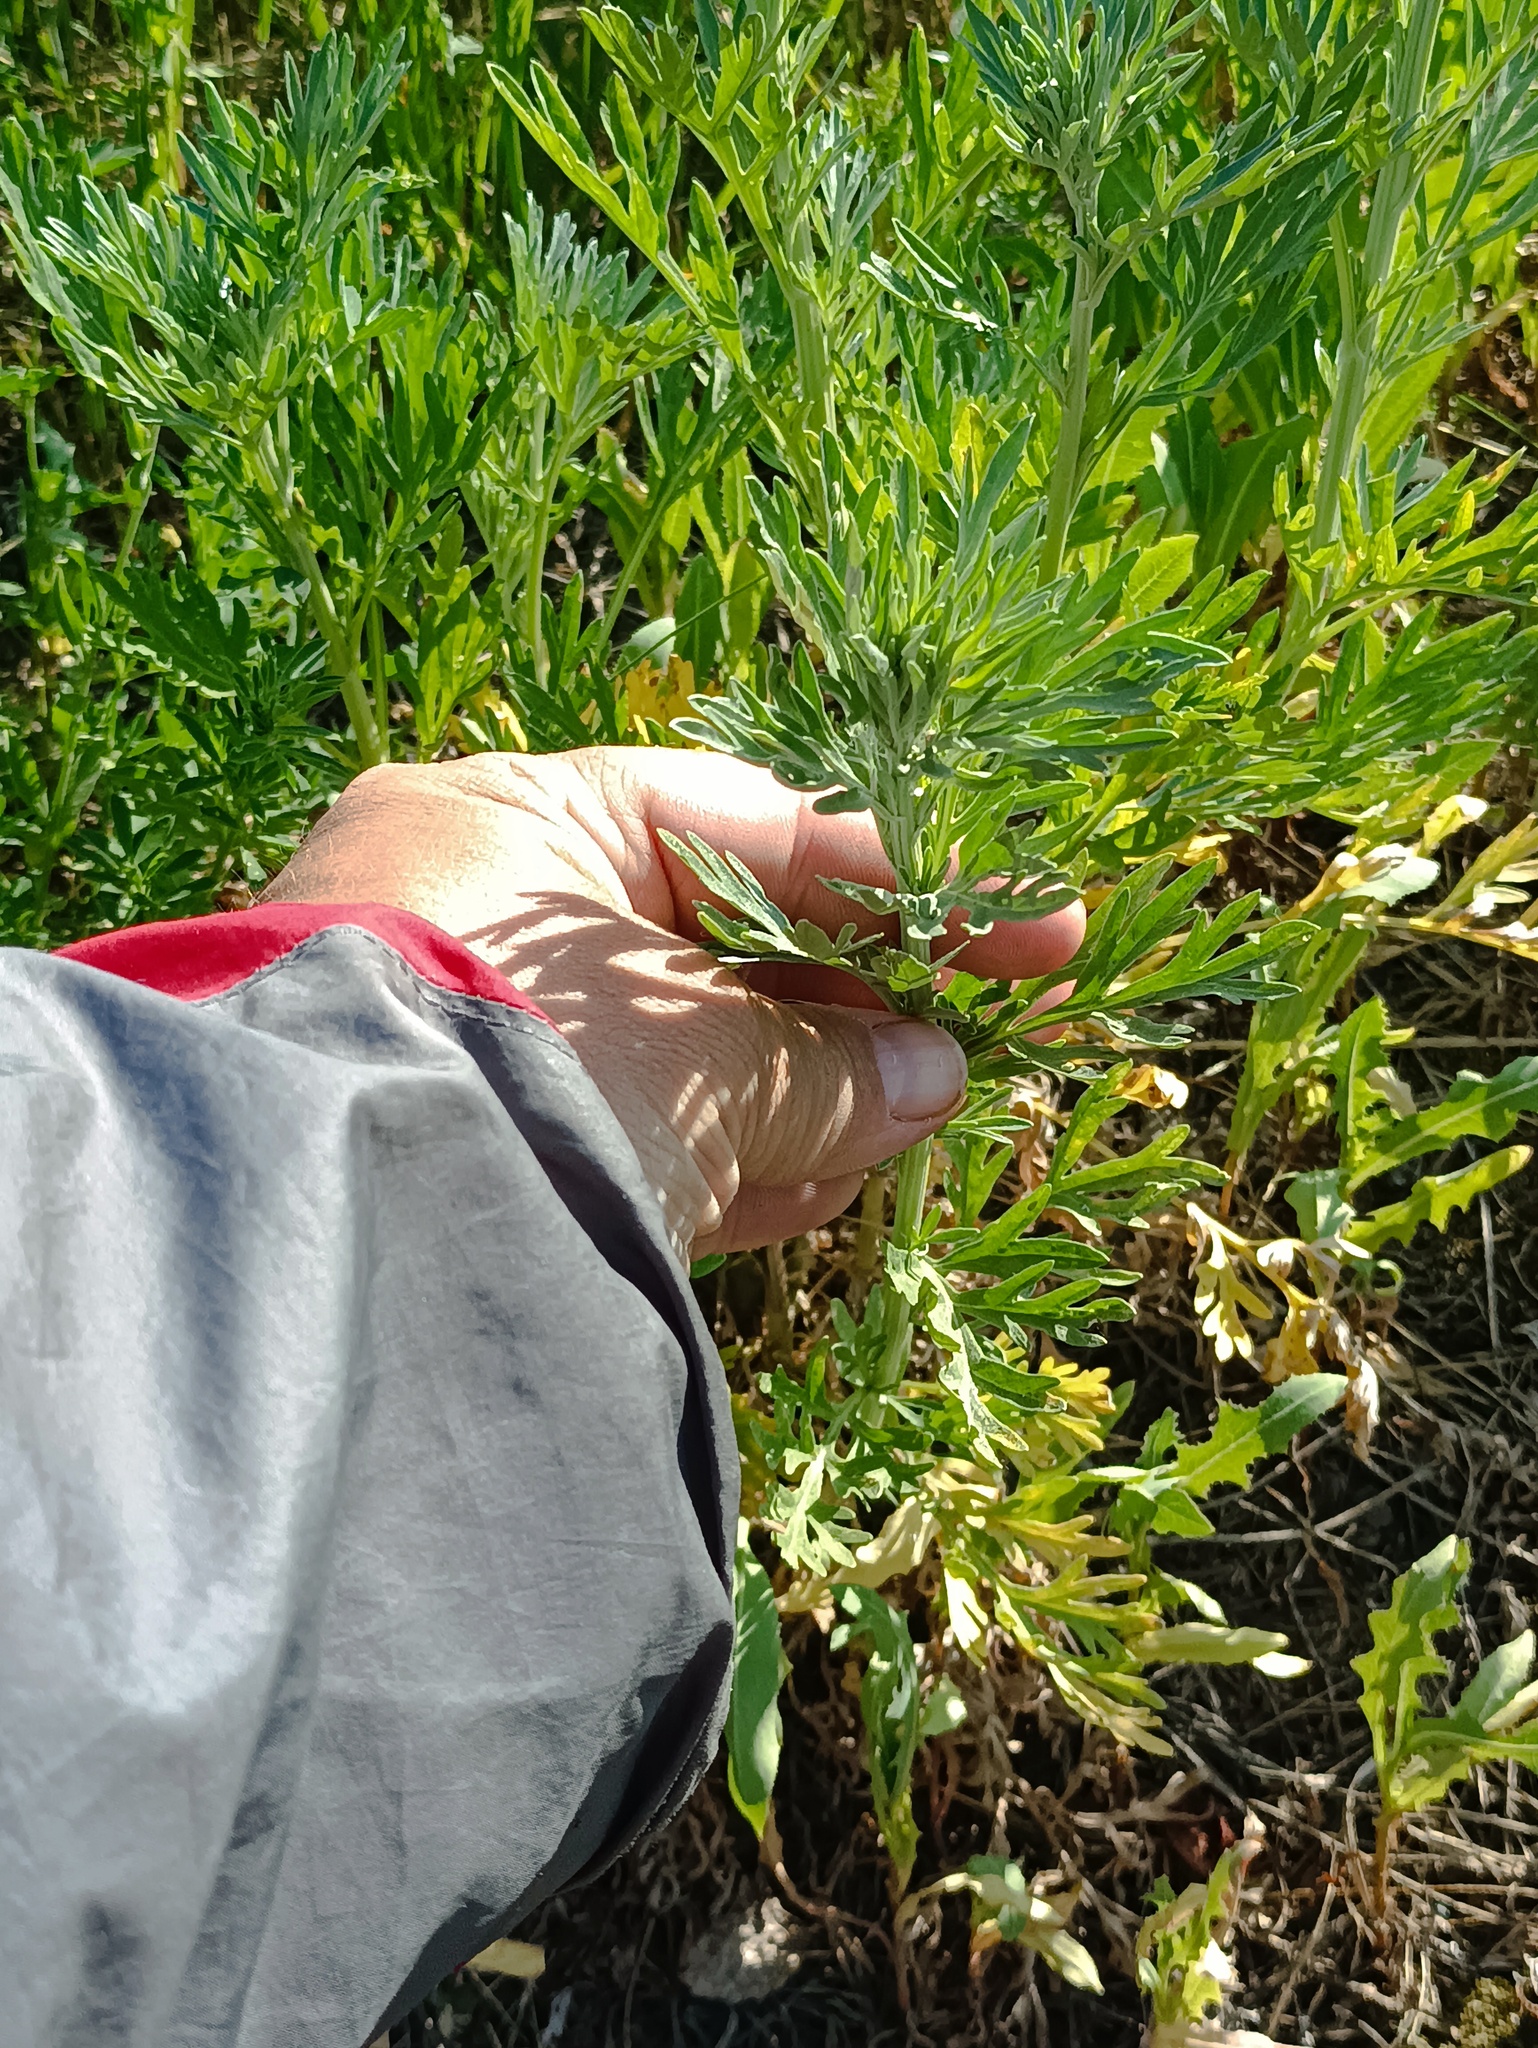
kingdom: Plantae
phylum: Tracheophyta
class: Magnoliopsida
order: Asterales
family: Asteraceae
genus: Artemisia
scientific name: Artemisia absinthium
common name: Wormwood
